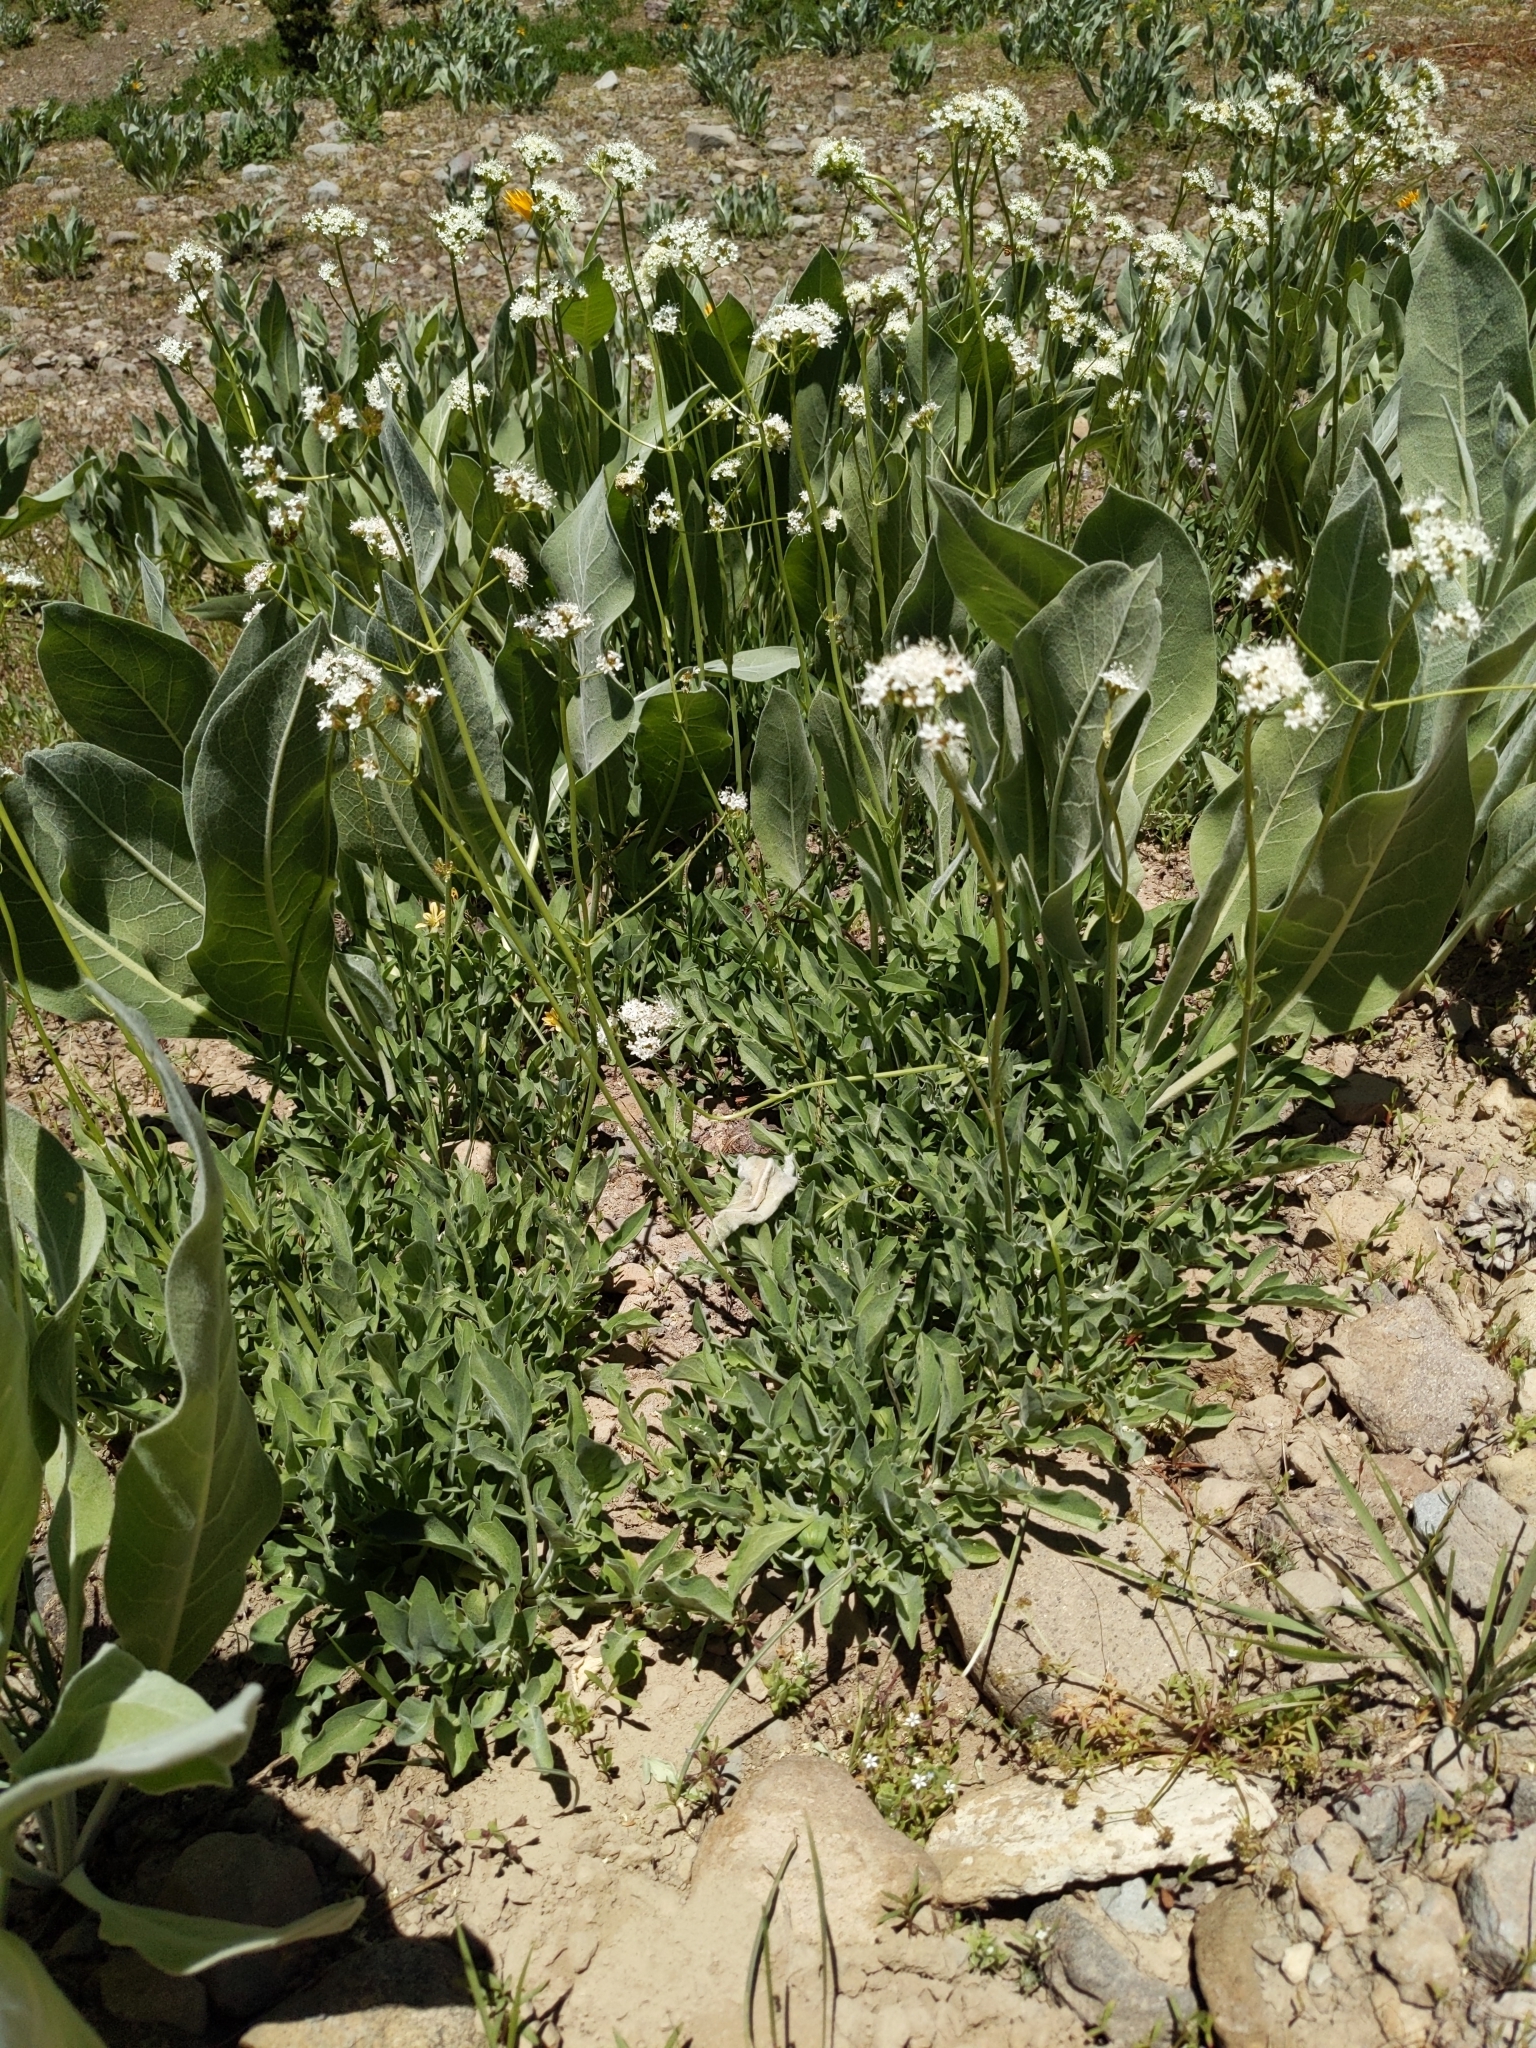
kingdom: Plantae
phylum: Tracheophyta
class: Magnoliopsida
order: Dipsacales
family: Caprifoliaceae
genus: Valeriana
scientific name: Valeriana californica
